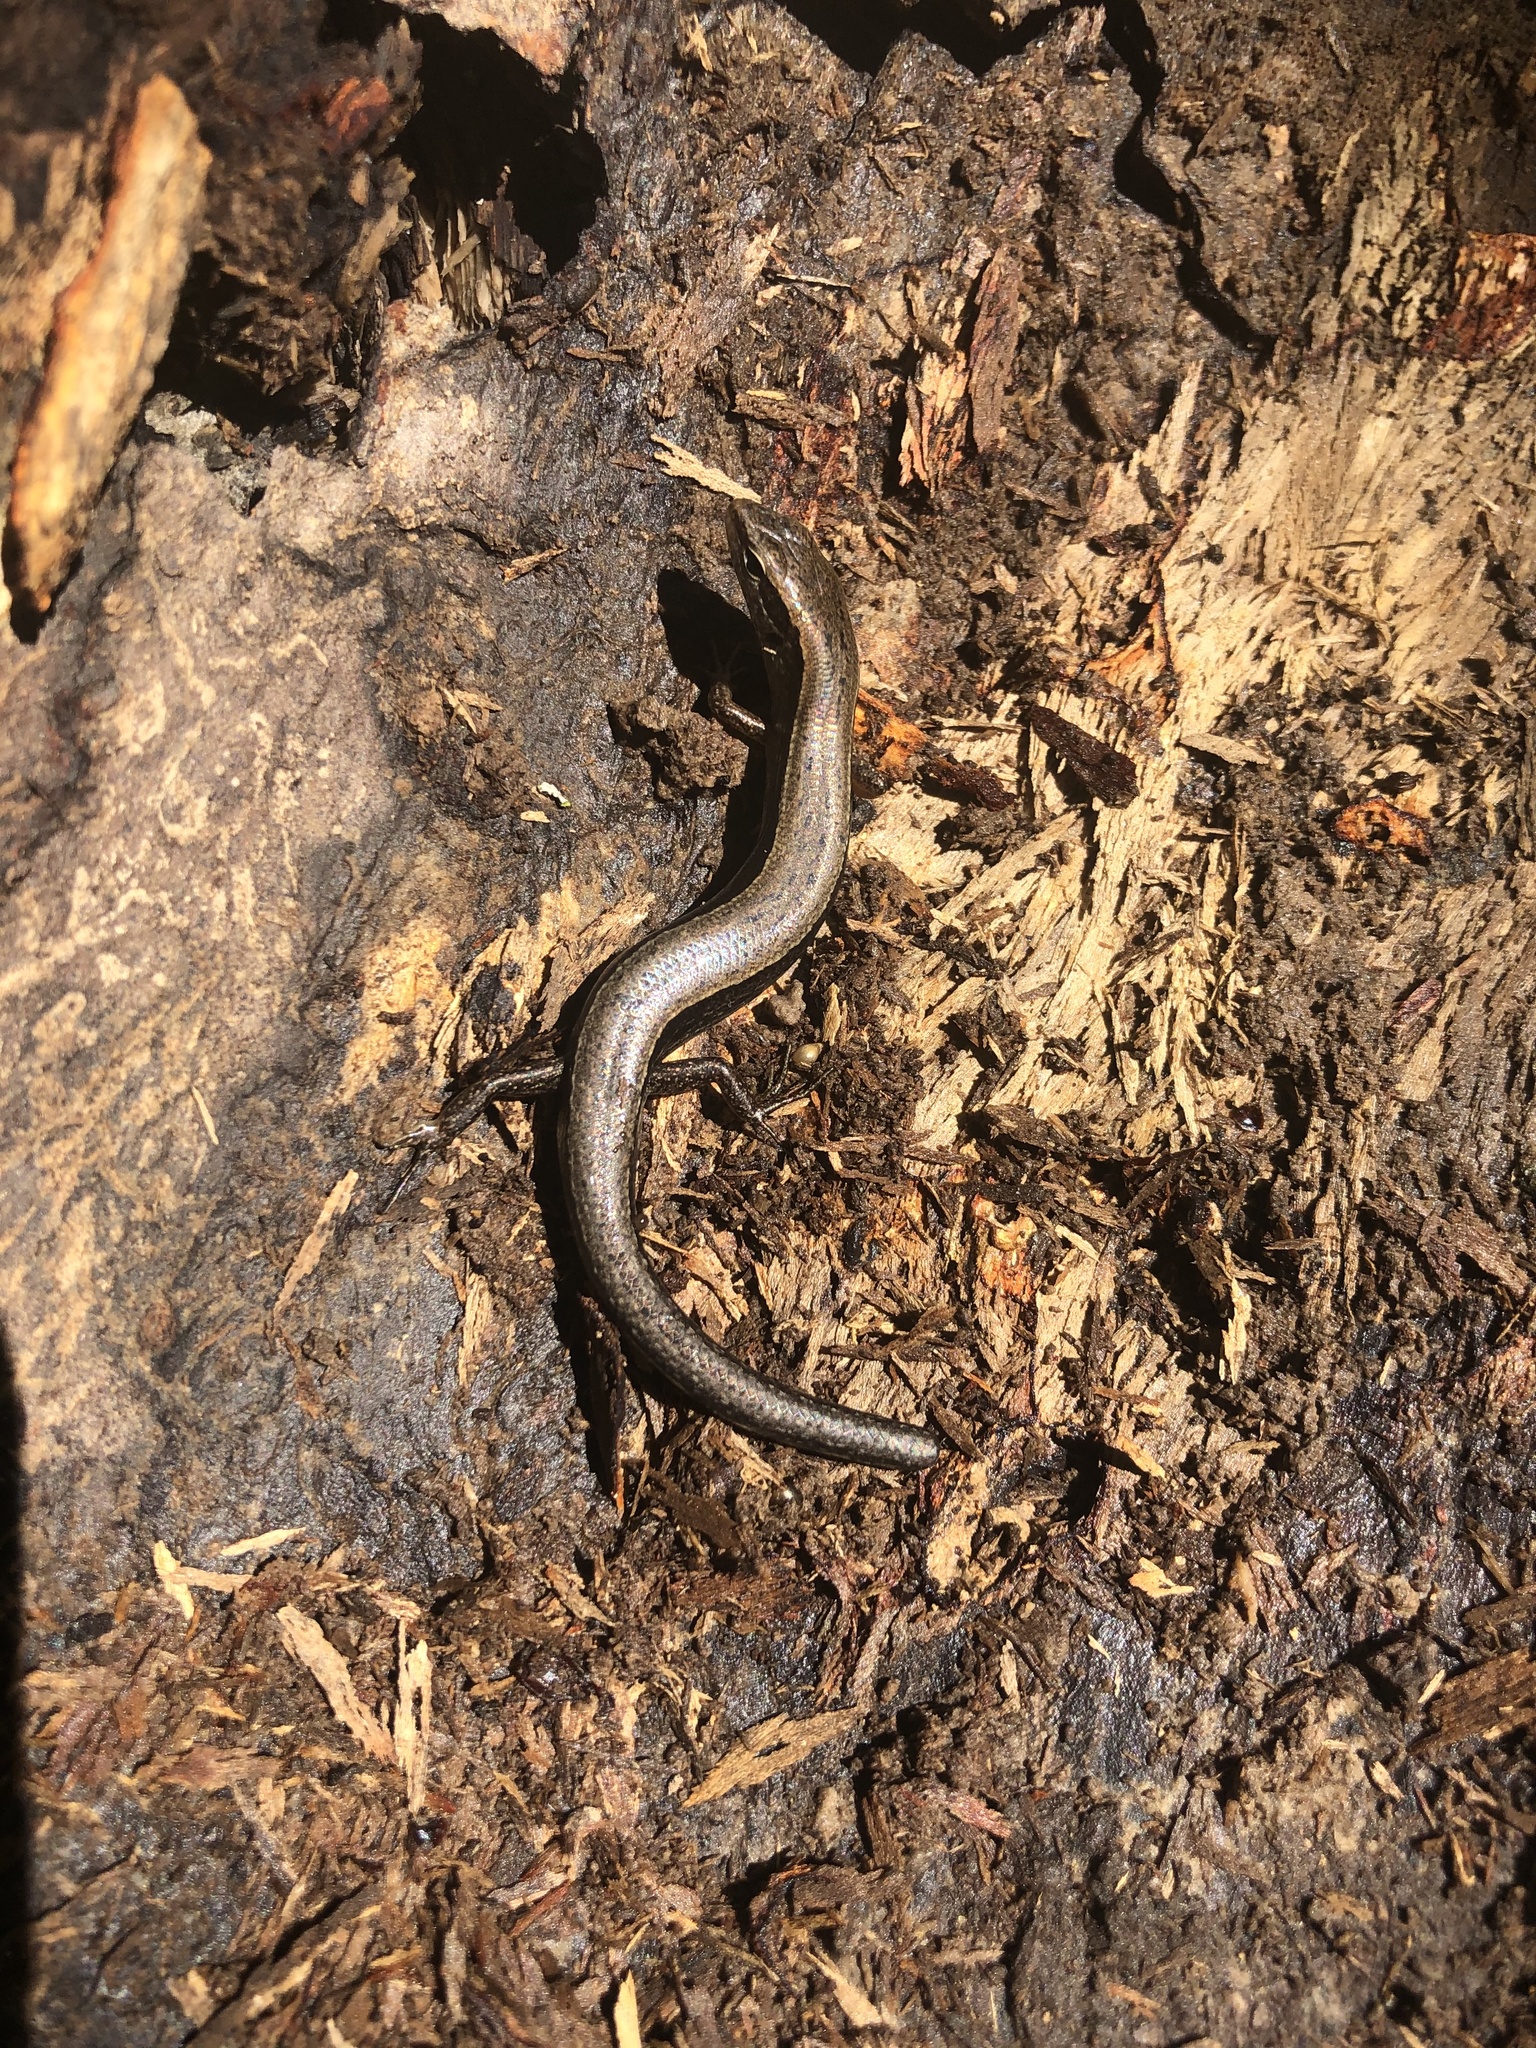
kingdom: Animalia
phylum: Chordata
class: Squamata
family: Scincidae
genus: Scincella
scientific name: Scincella lateralis
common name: Ground skink
